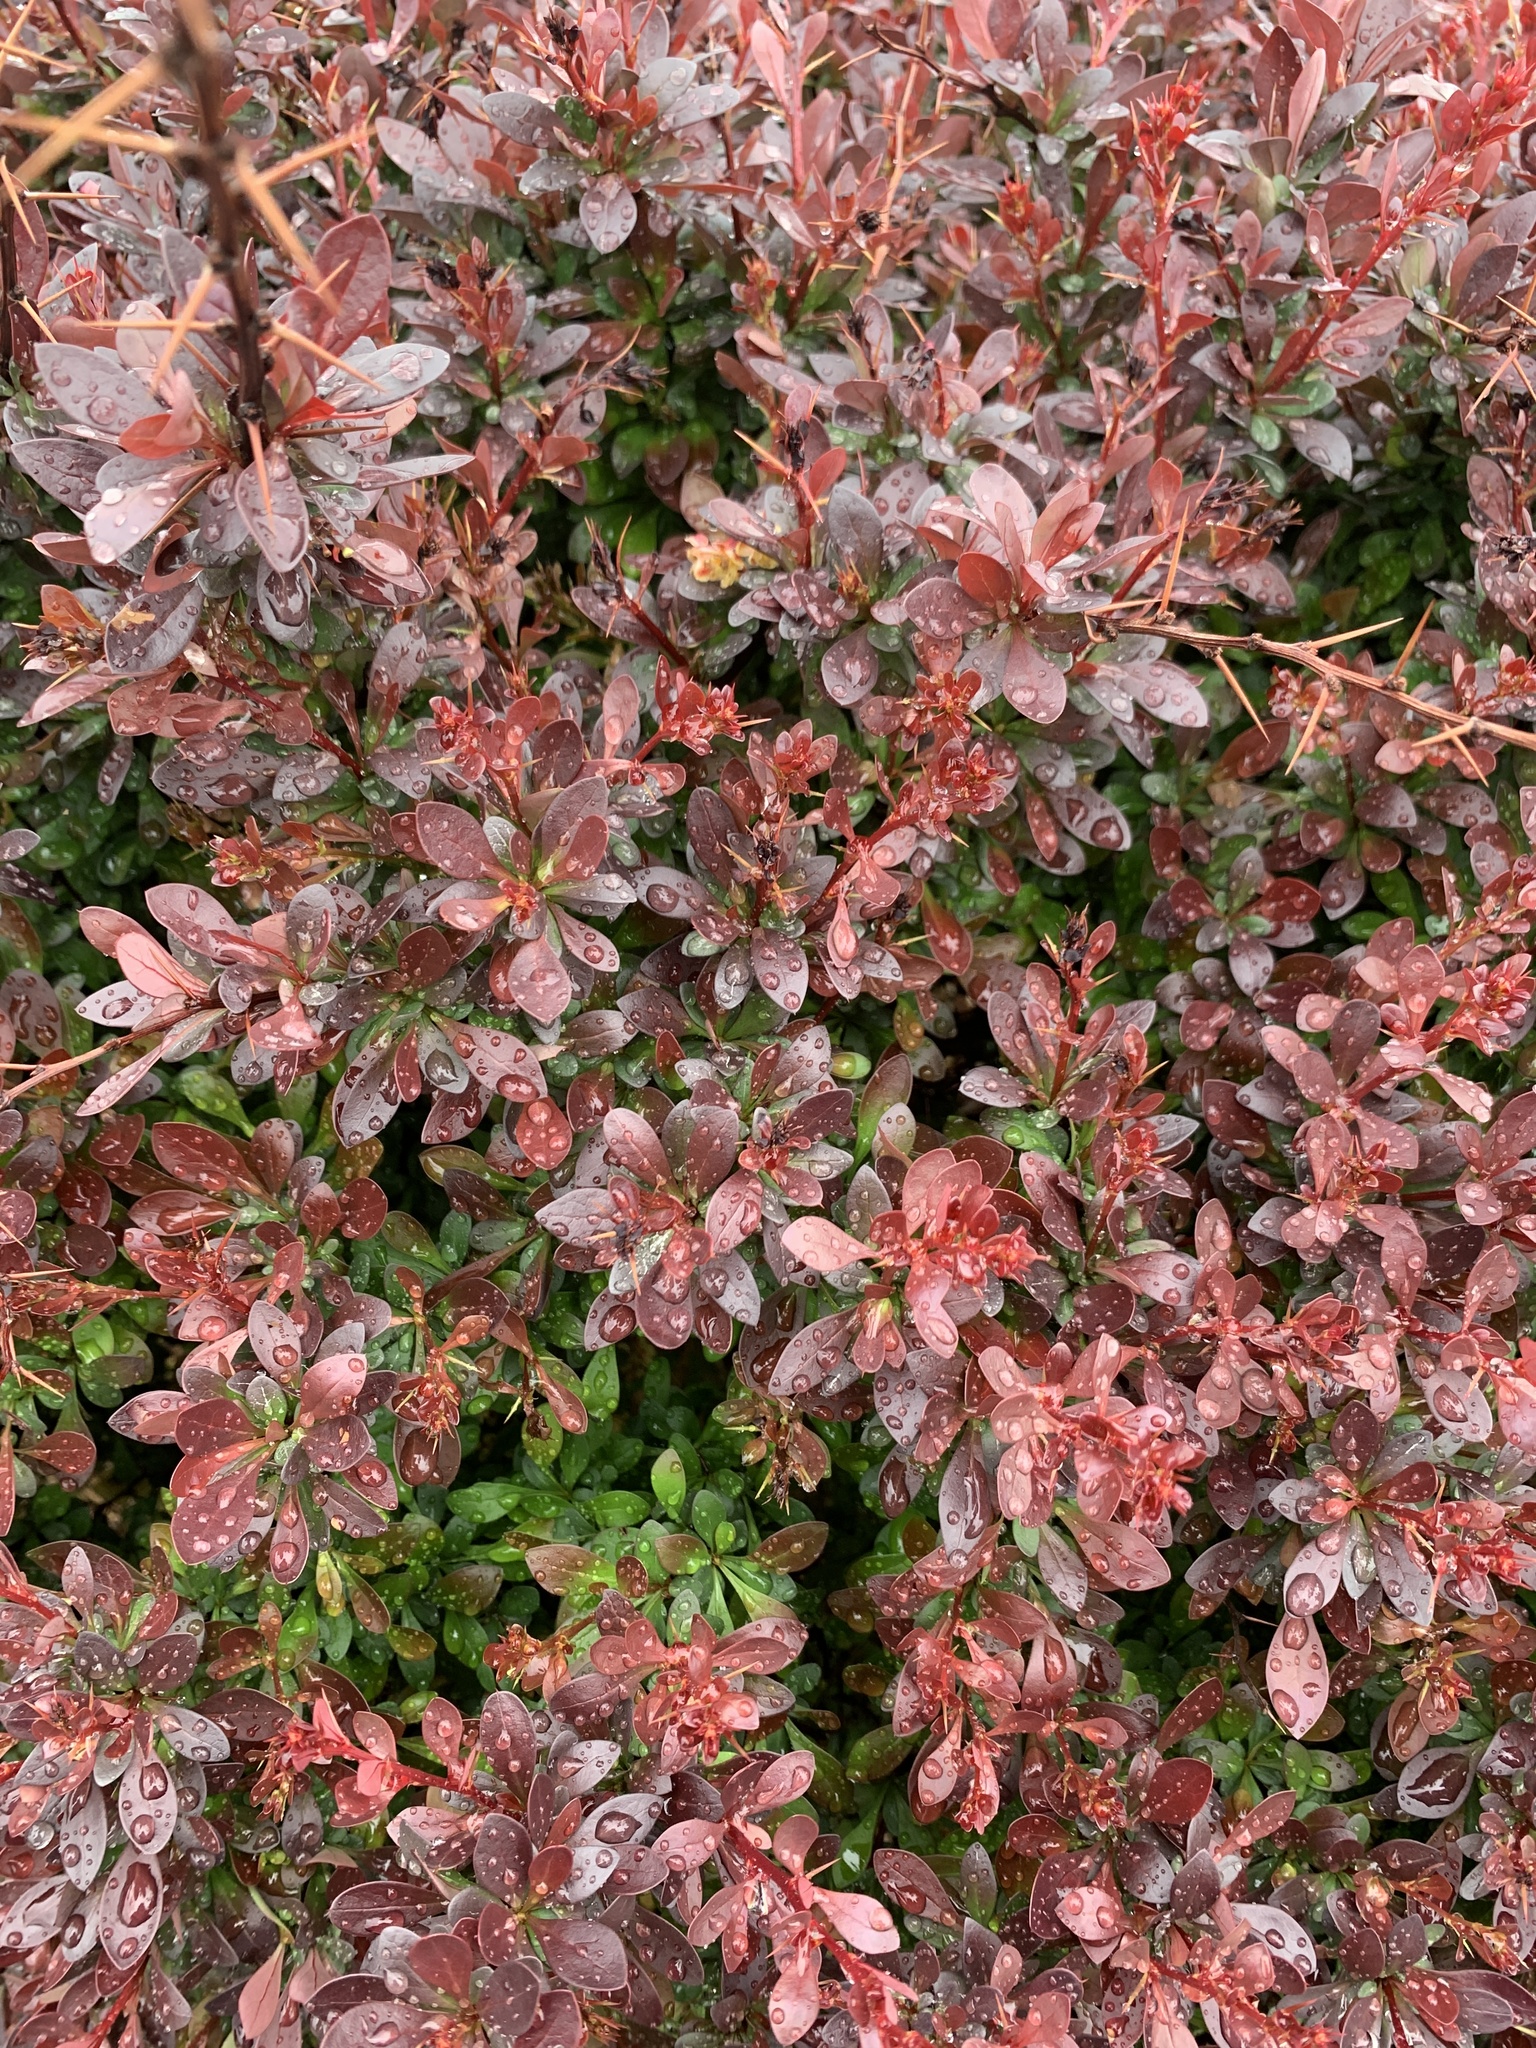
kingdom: Plantae
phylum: Tracheophyta
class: Magnoliopsida
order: Ranunculales
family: Berberidaceae
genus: Berberis
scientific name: Berberis thunbergii
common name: Japanese barberry
